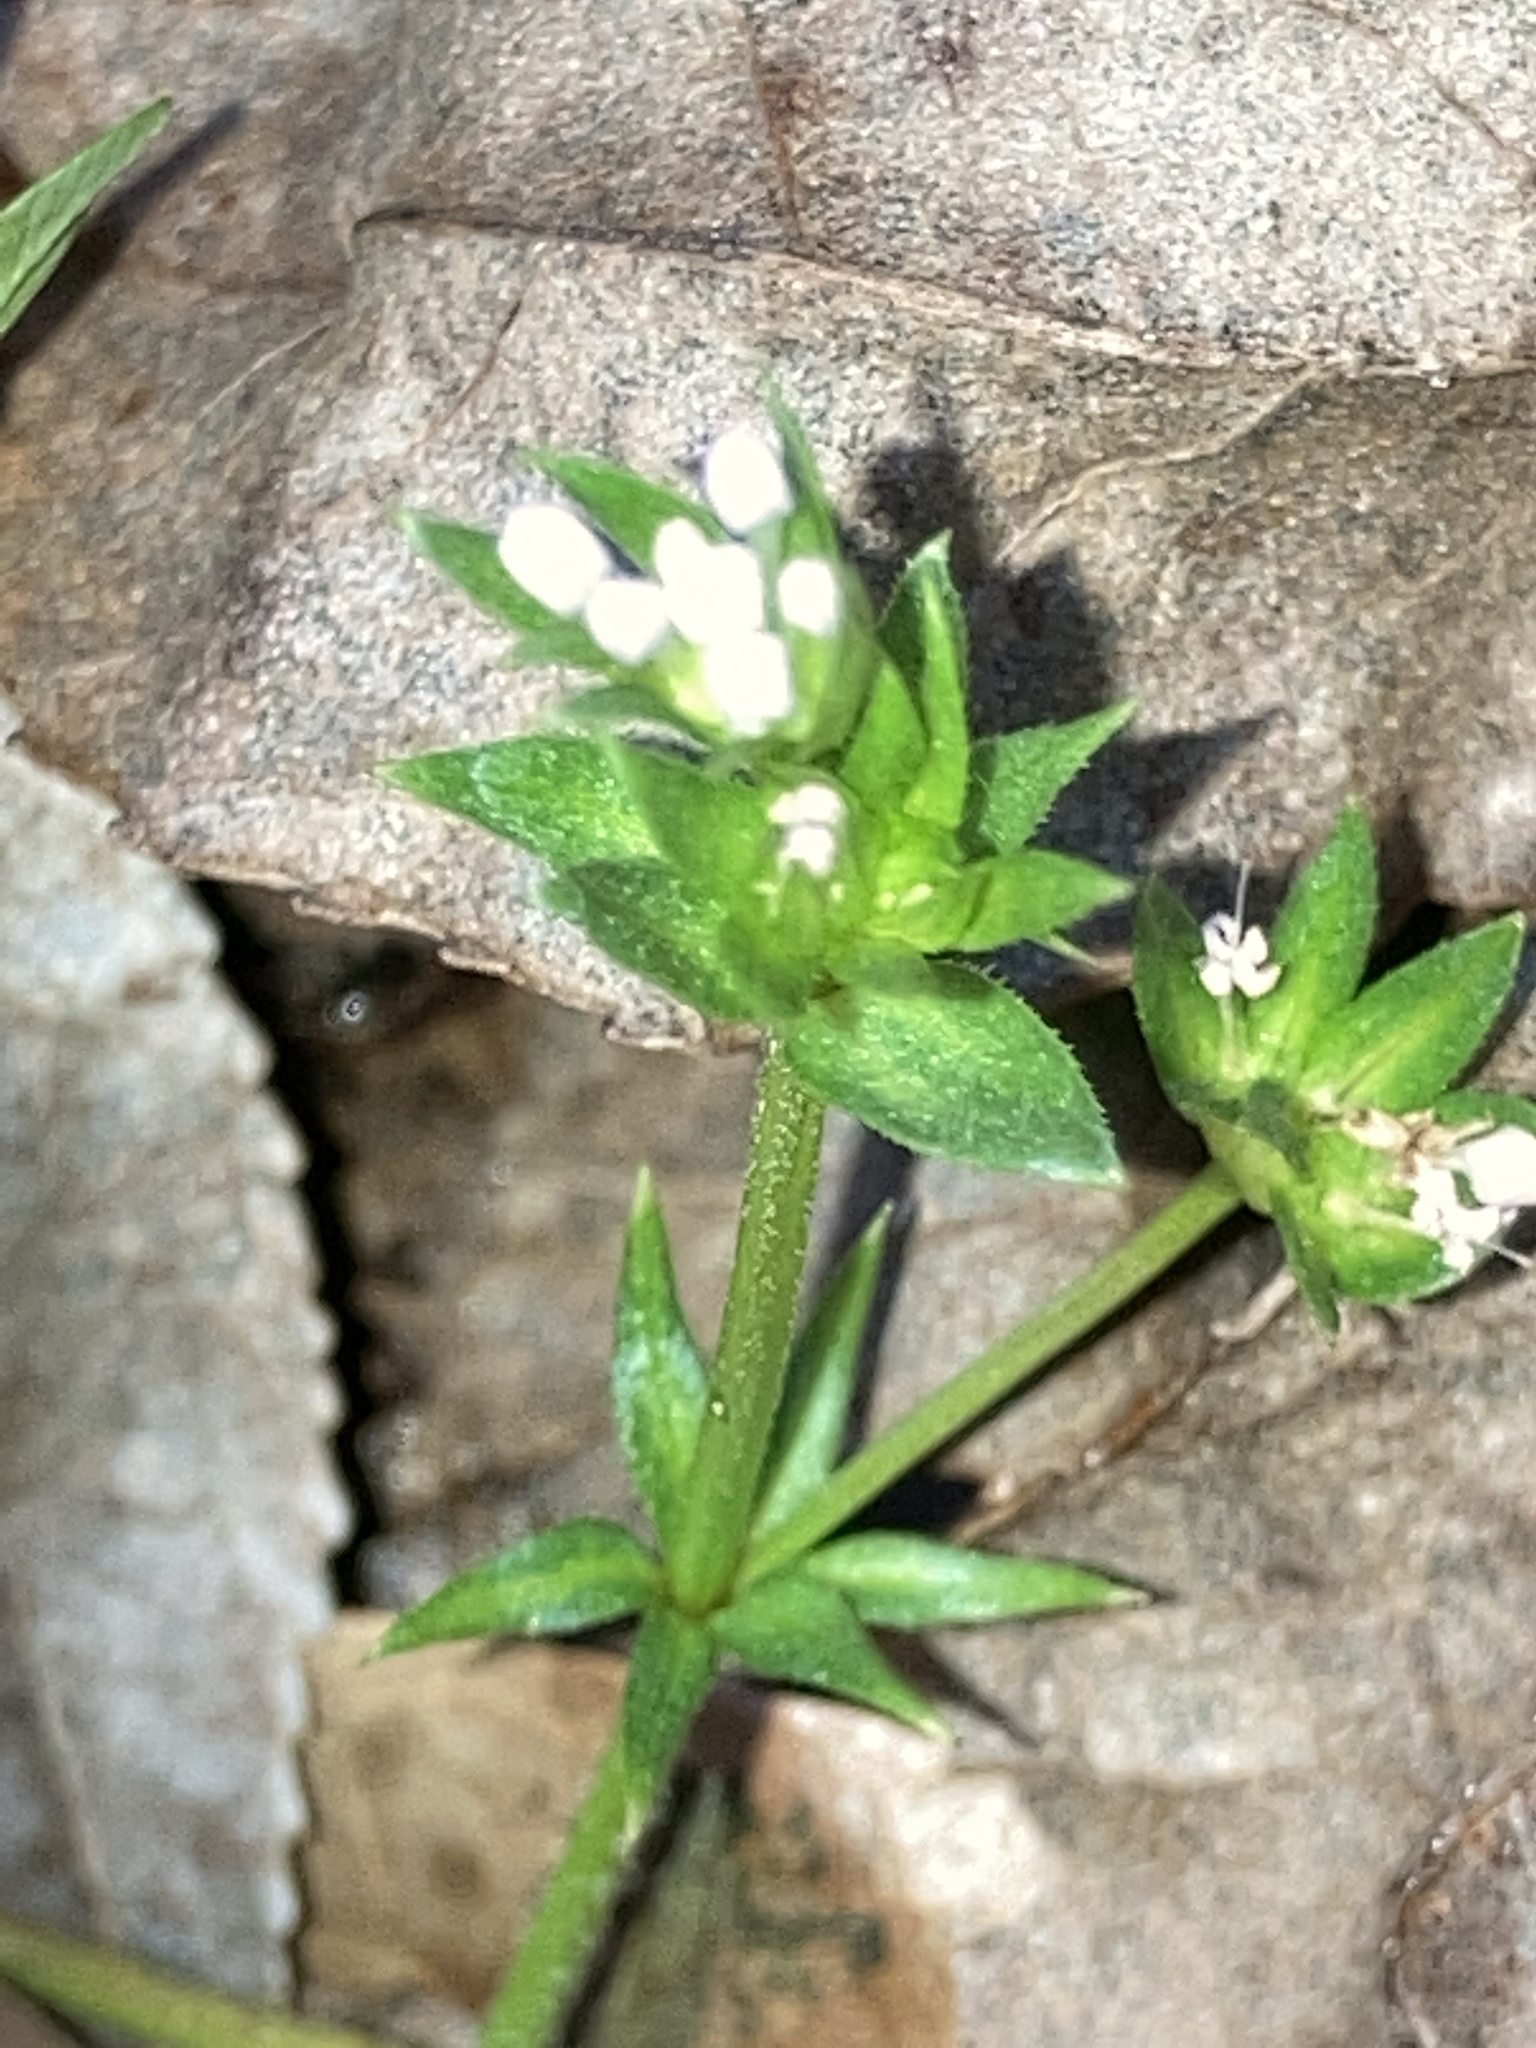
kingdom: Plantae
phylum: Tracheophyta
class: Magnoliopsida
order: Gentianales
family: Rubiaceae
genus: Sherardia
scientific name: Sherardia arvensis
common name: Field madder
